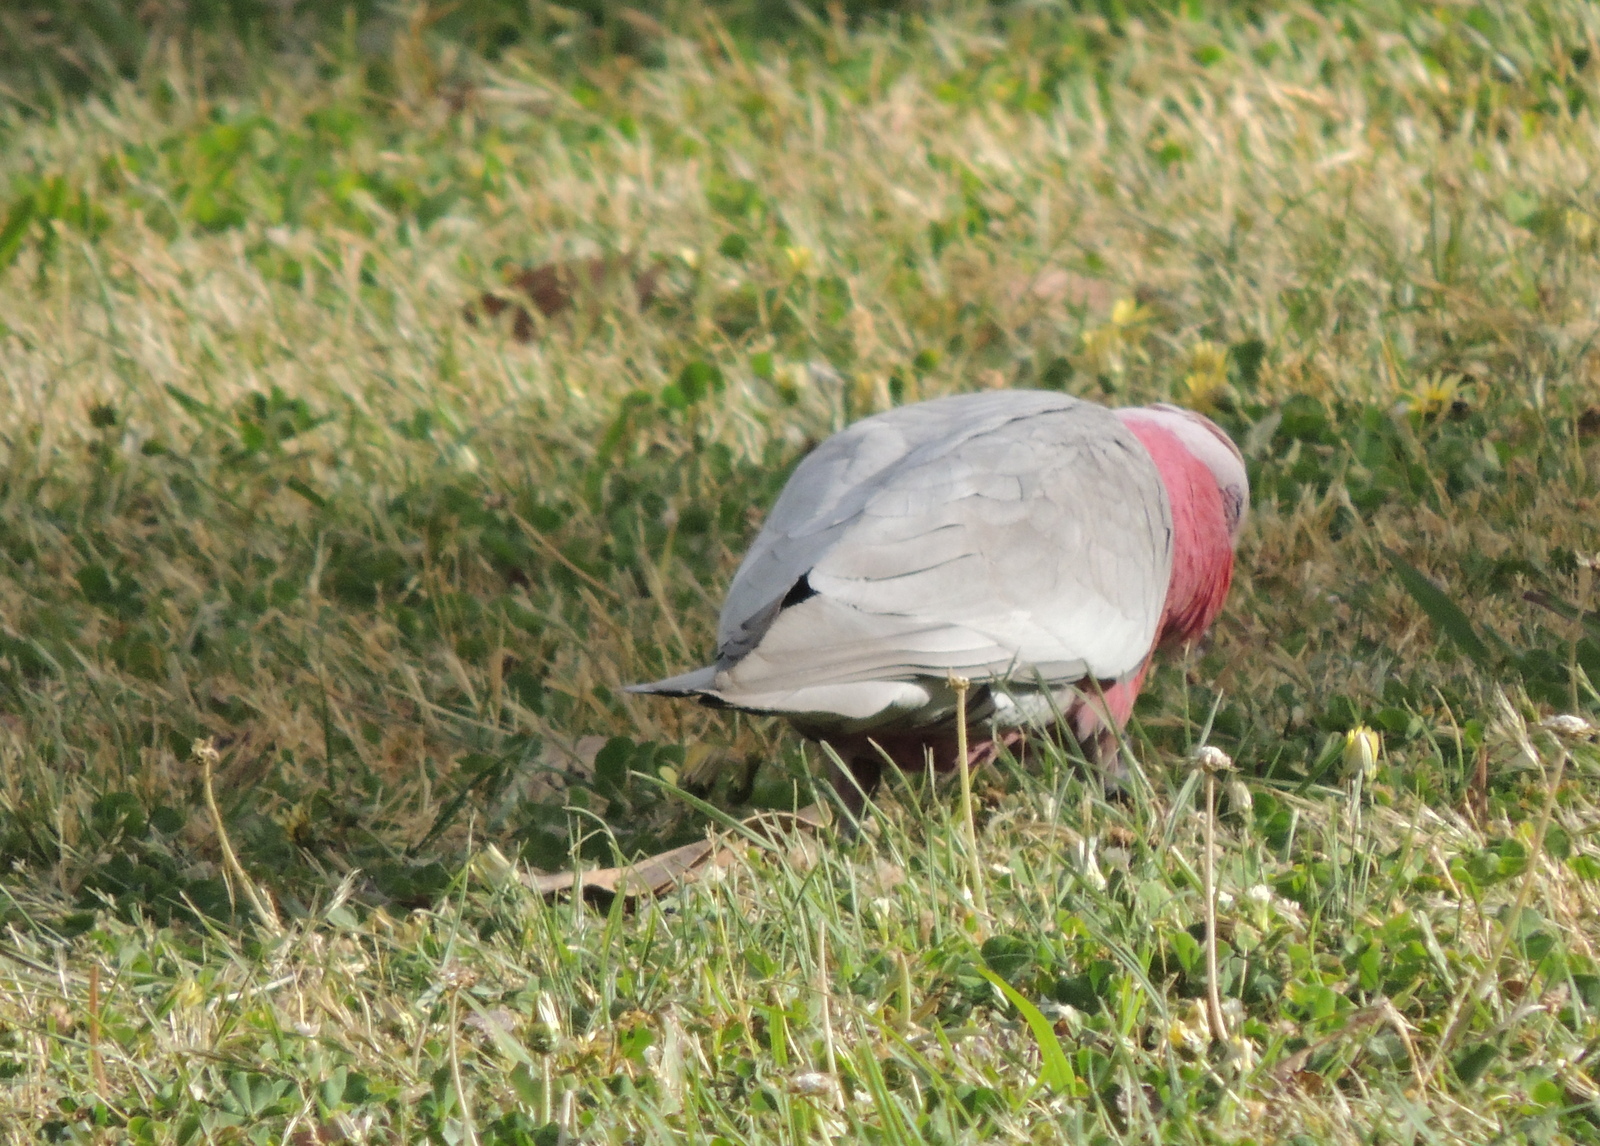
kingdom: Animalia
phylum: Chordata
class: Aves
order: Psittaciformes
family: Psittacidae
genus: Eolophus
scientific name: Eolophus roseicapilla
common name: Galah
